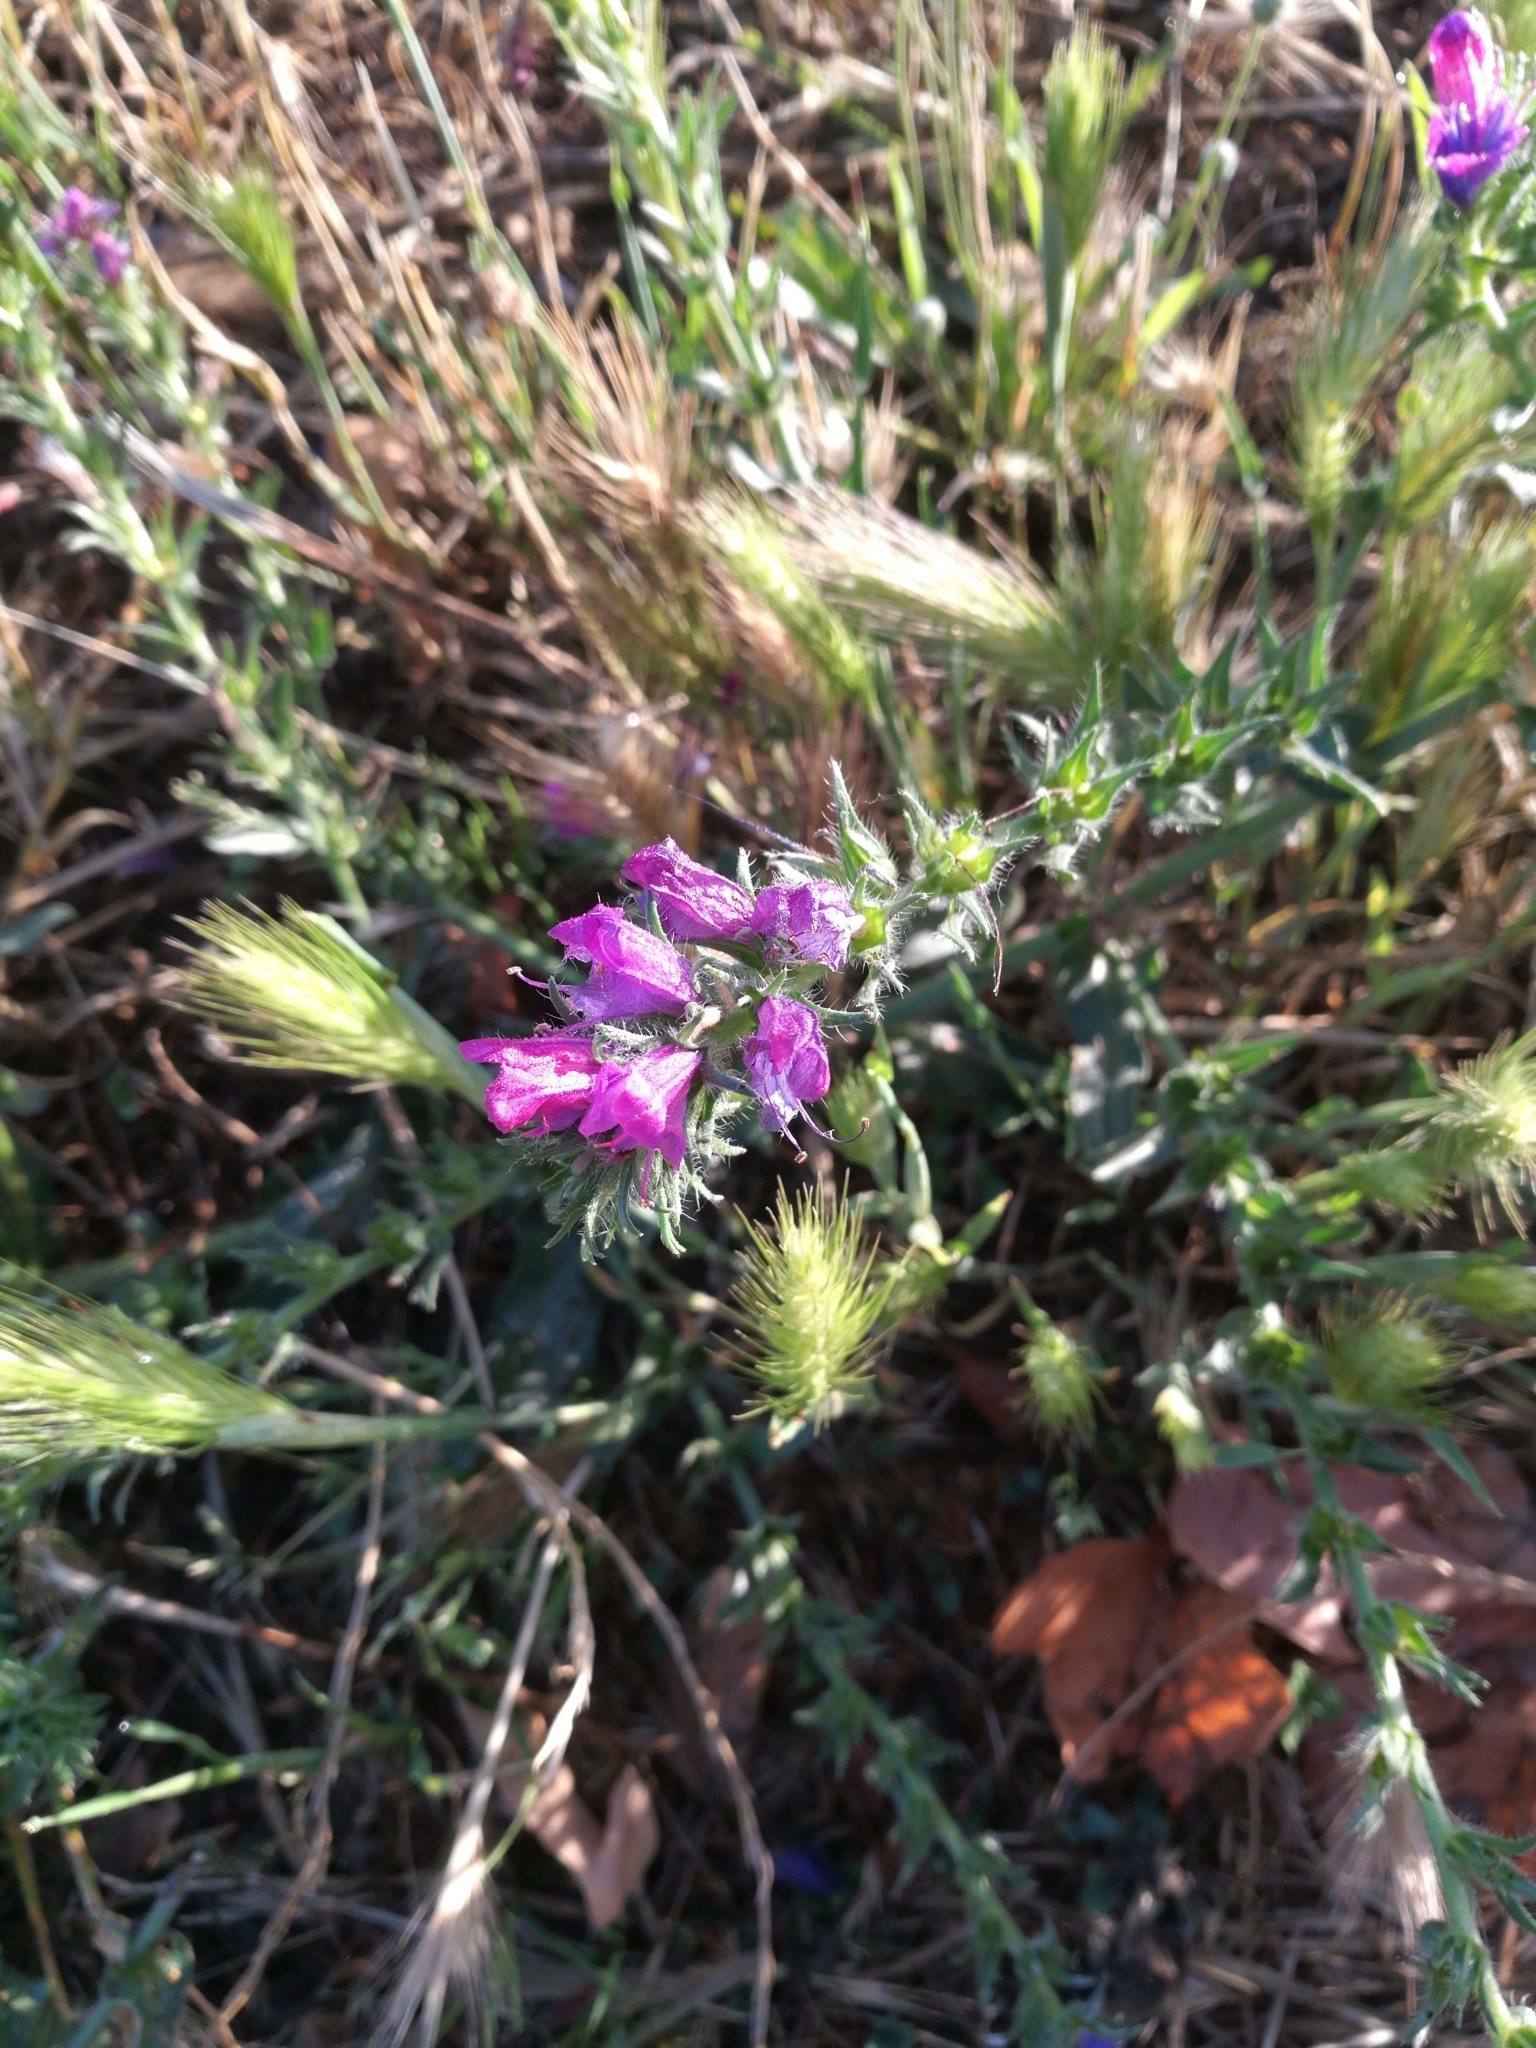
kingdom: Plantae
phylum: Tracheophyta
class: Magnoliopsida
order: Boraginales
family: Boraginaceae
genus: Echium
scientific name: Echium vulgare
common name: Common viper's bugloss
